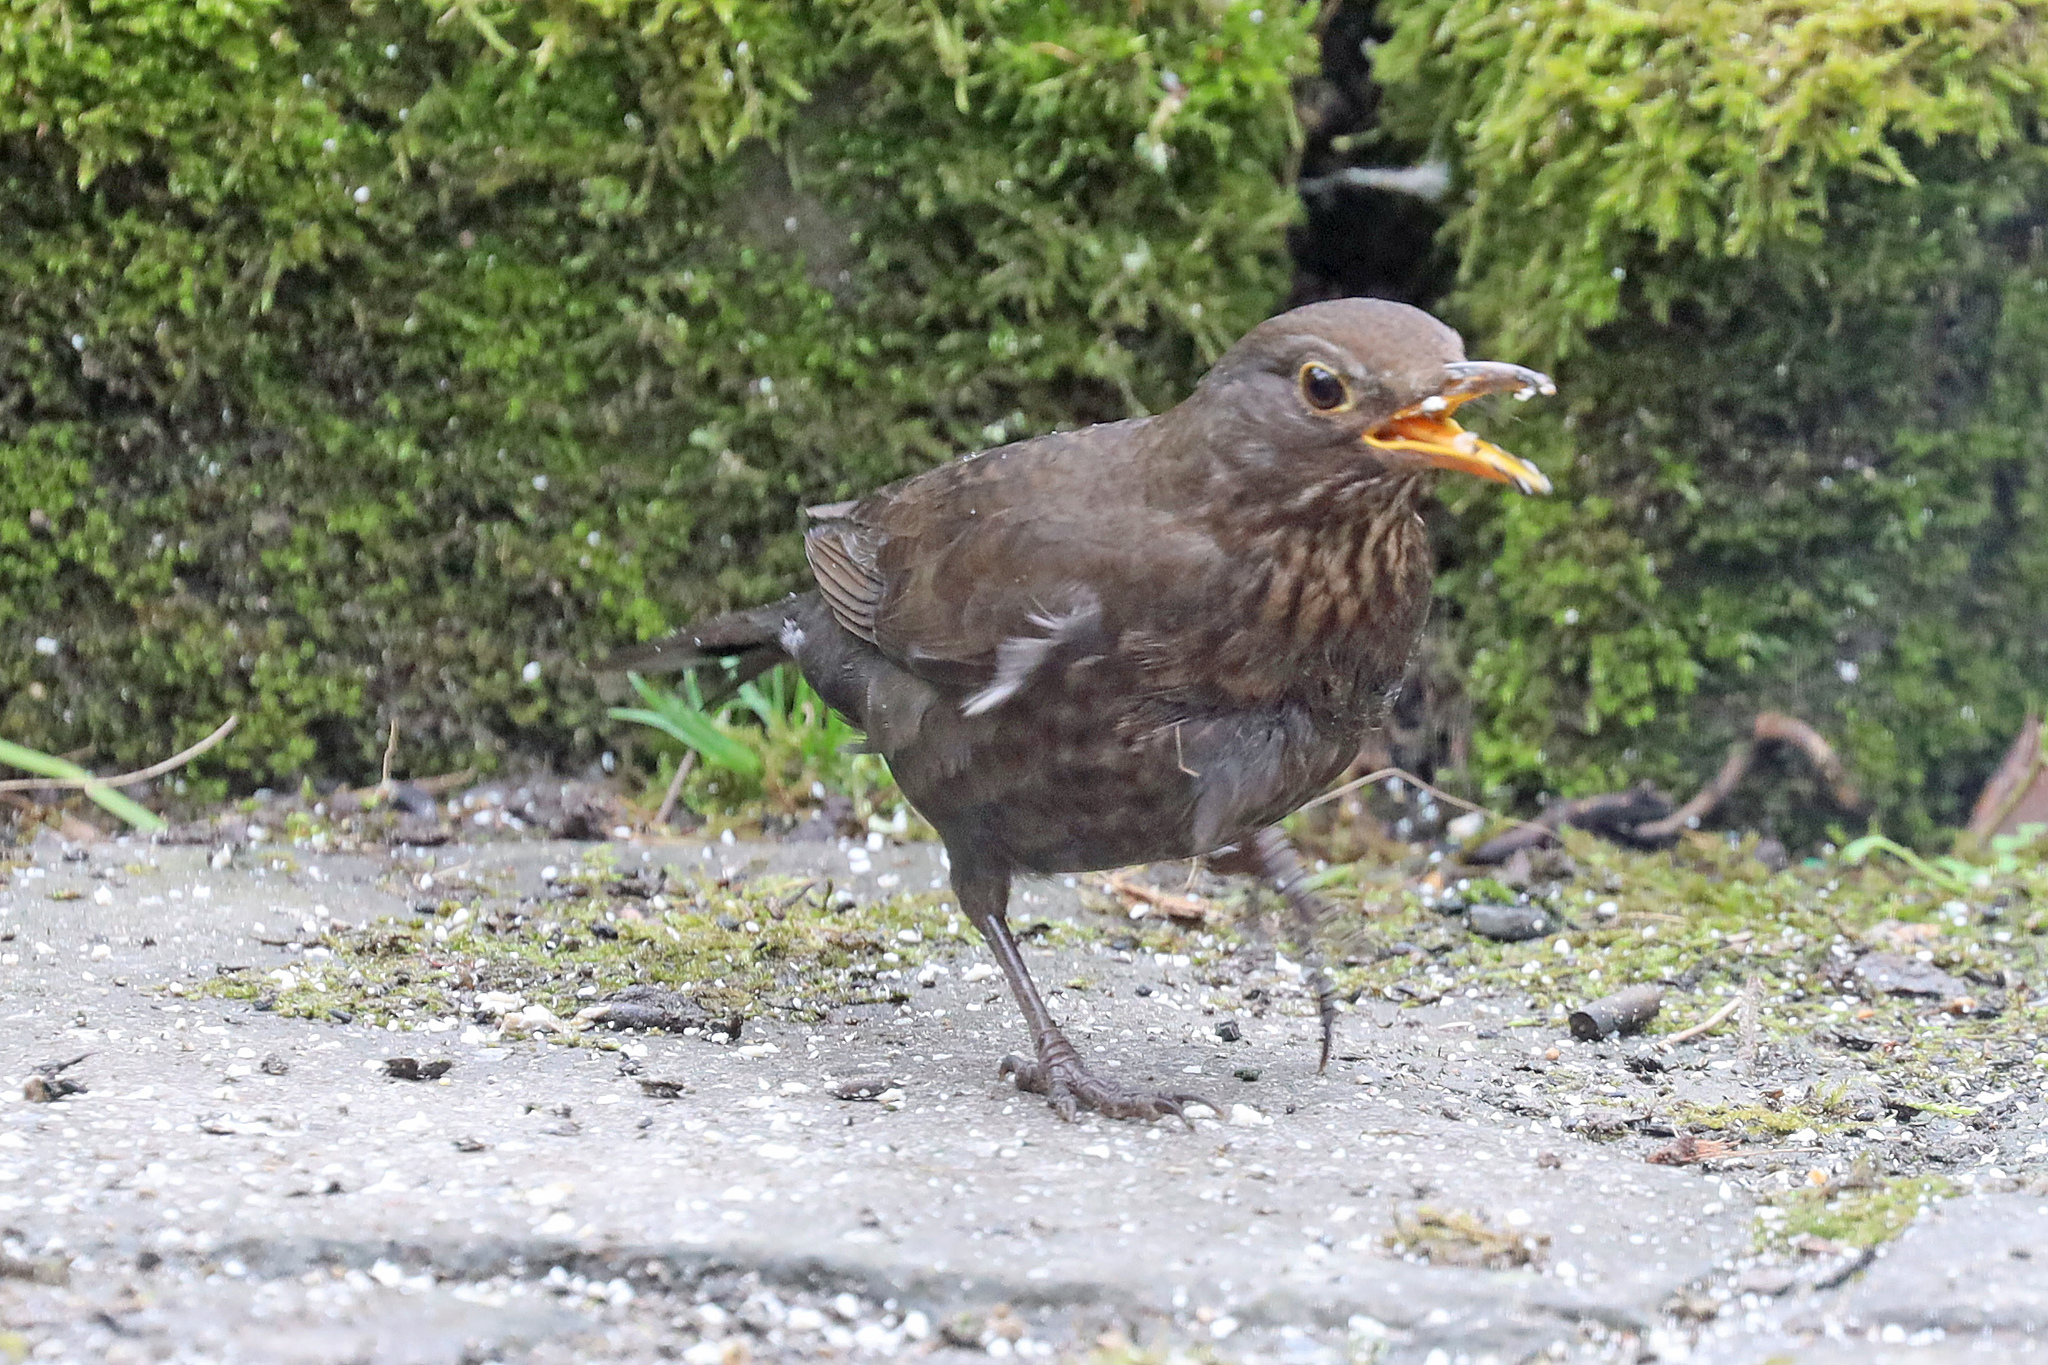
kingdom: Animalia
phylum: Chordata
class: Aves
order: Passeriformes
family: Turdidae
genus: Turdus
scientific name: Turdus merula
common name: Common blackbird
